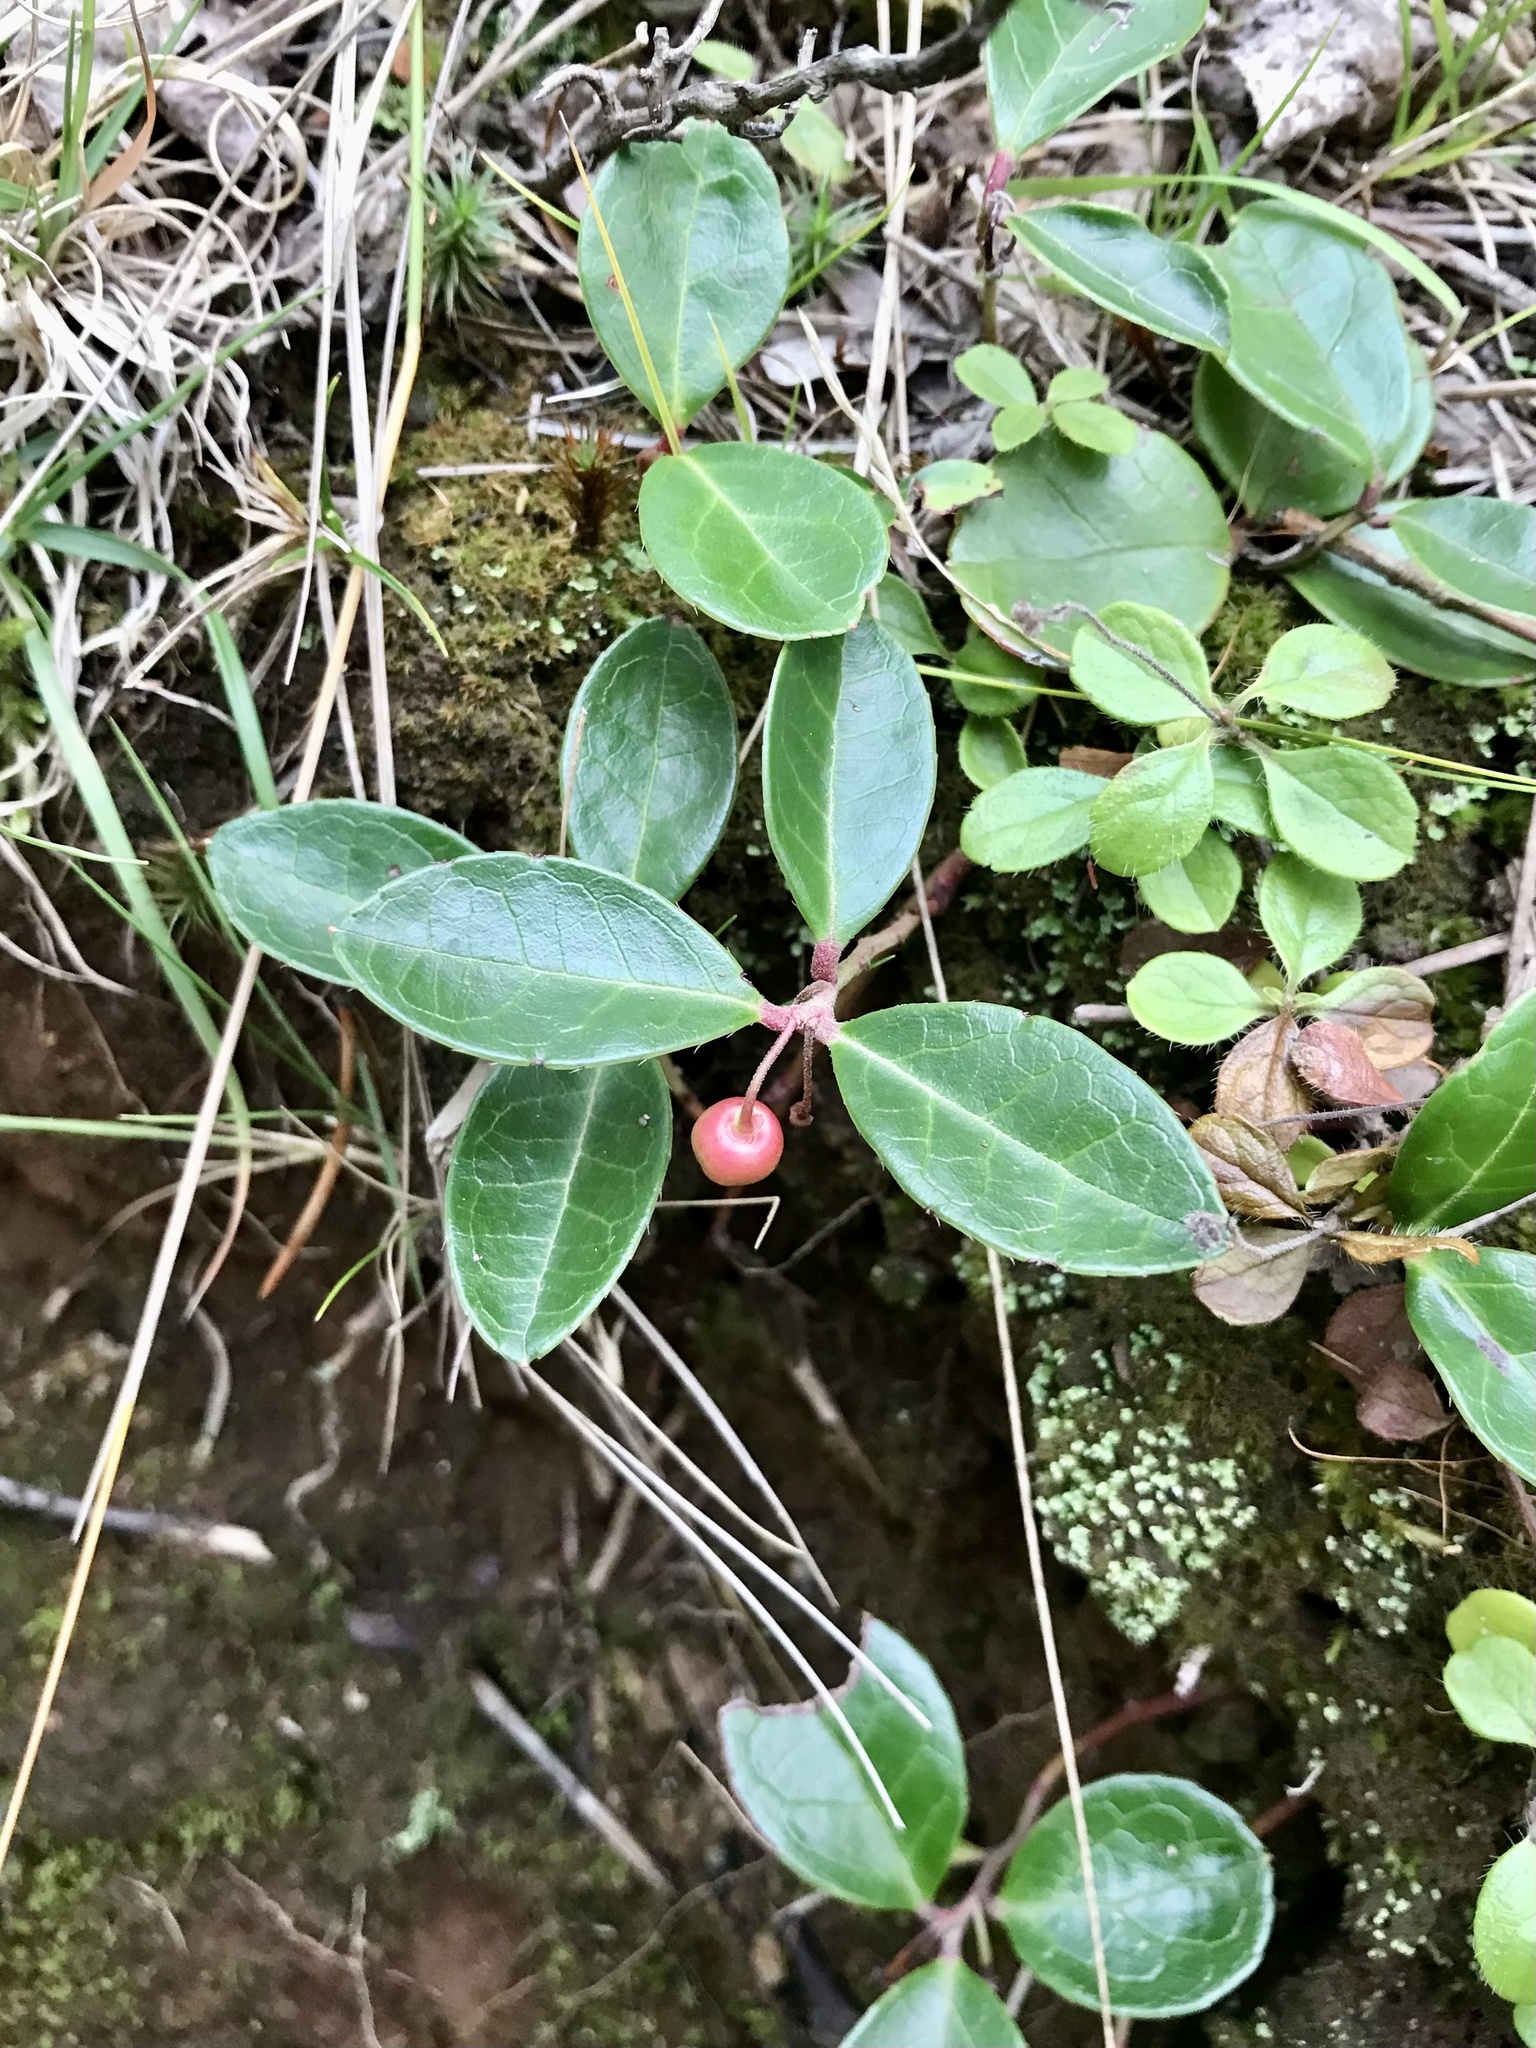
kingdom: Plantae
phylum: Tracheophyta
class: Magnoliopsida
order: Ericales
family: Ericaceae
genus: Gaultheria
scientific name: Gaultheria procumbens
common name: Checkerberry
